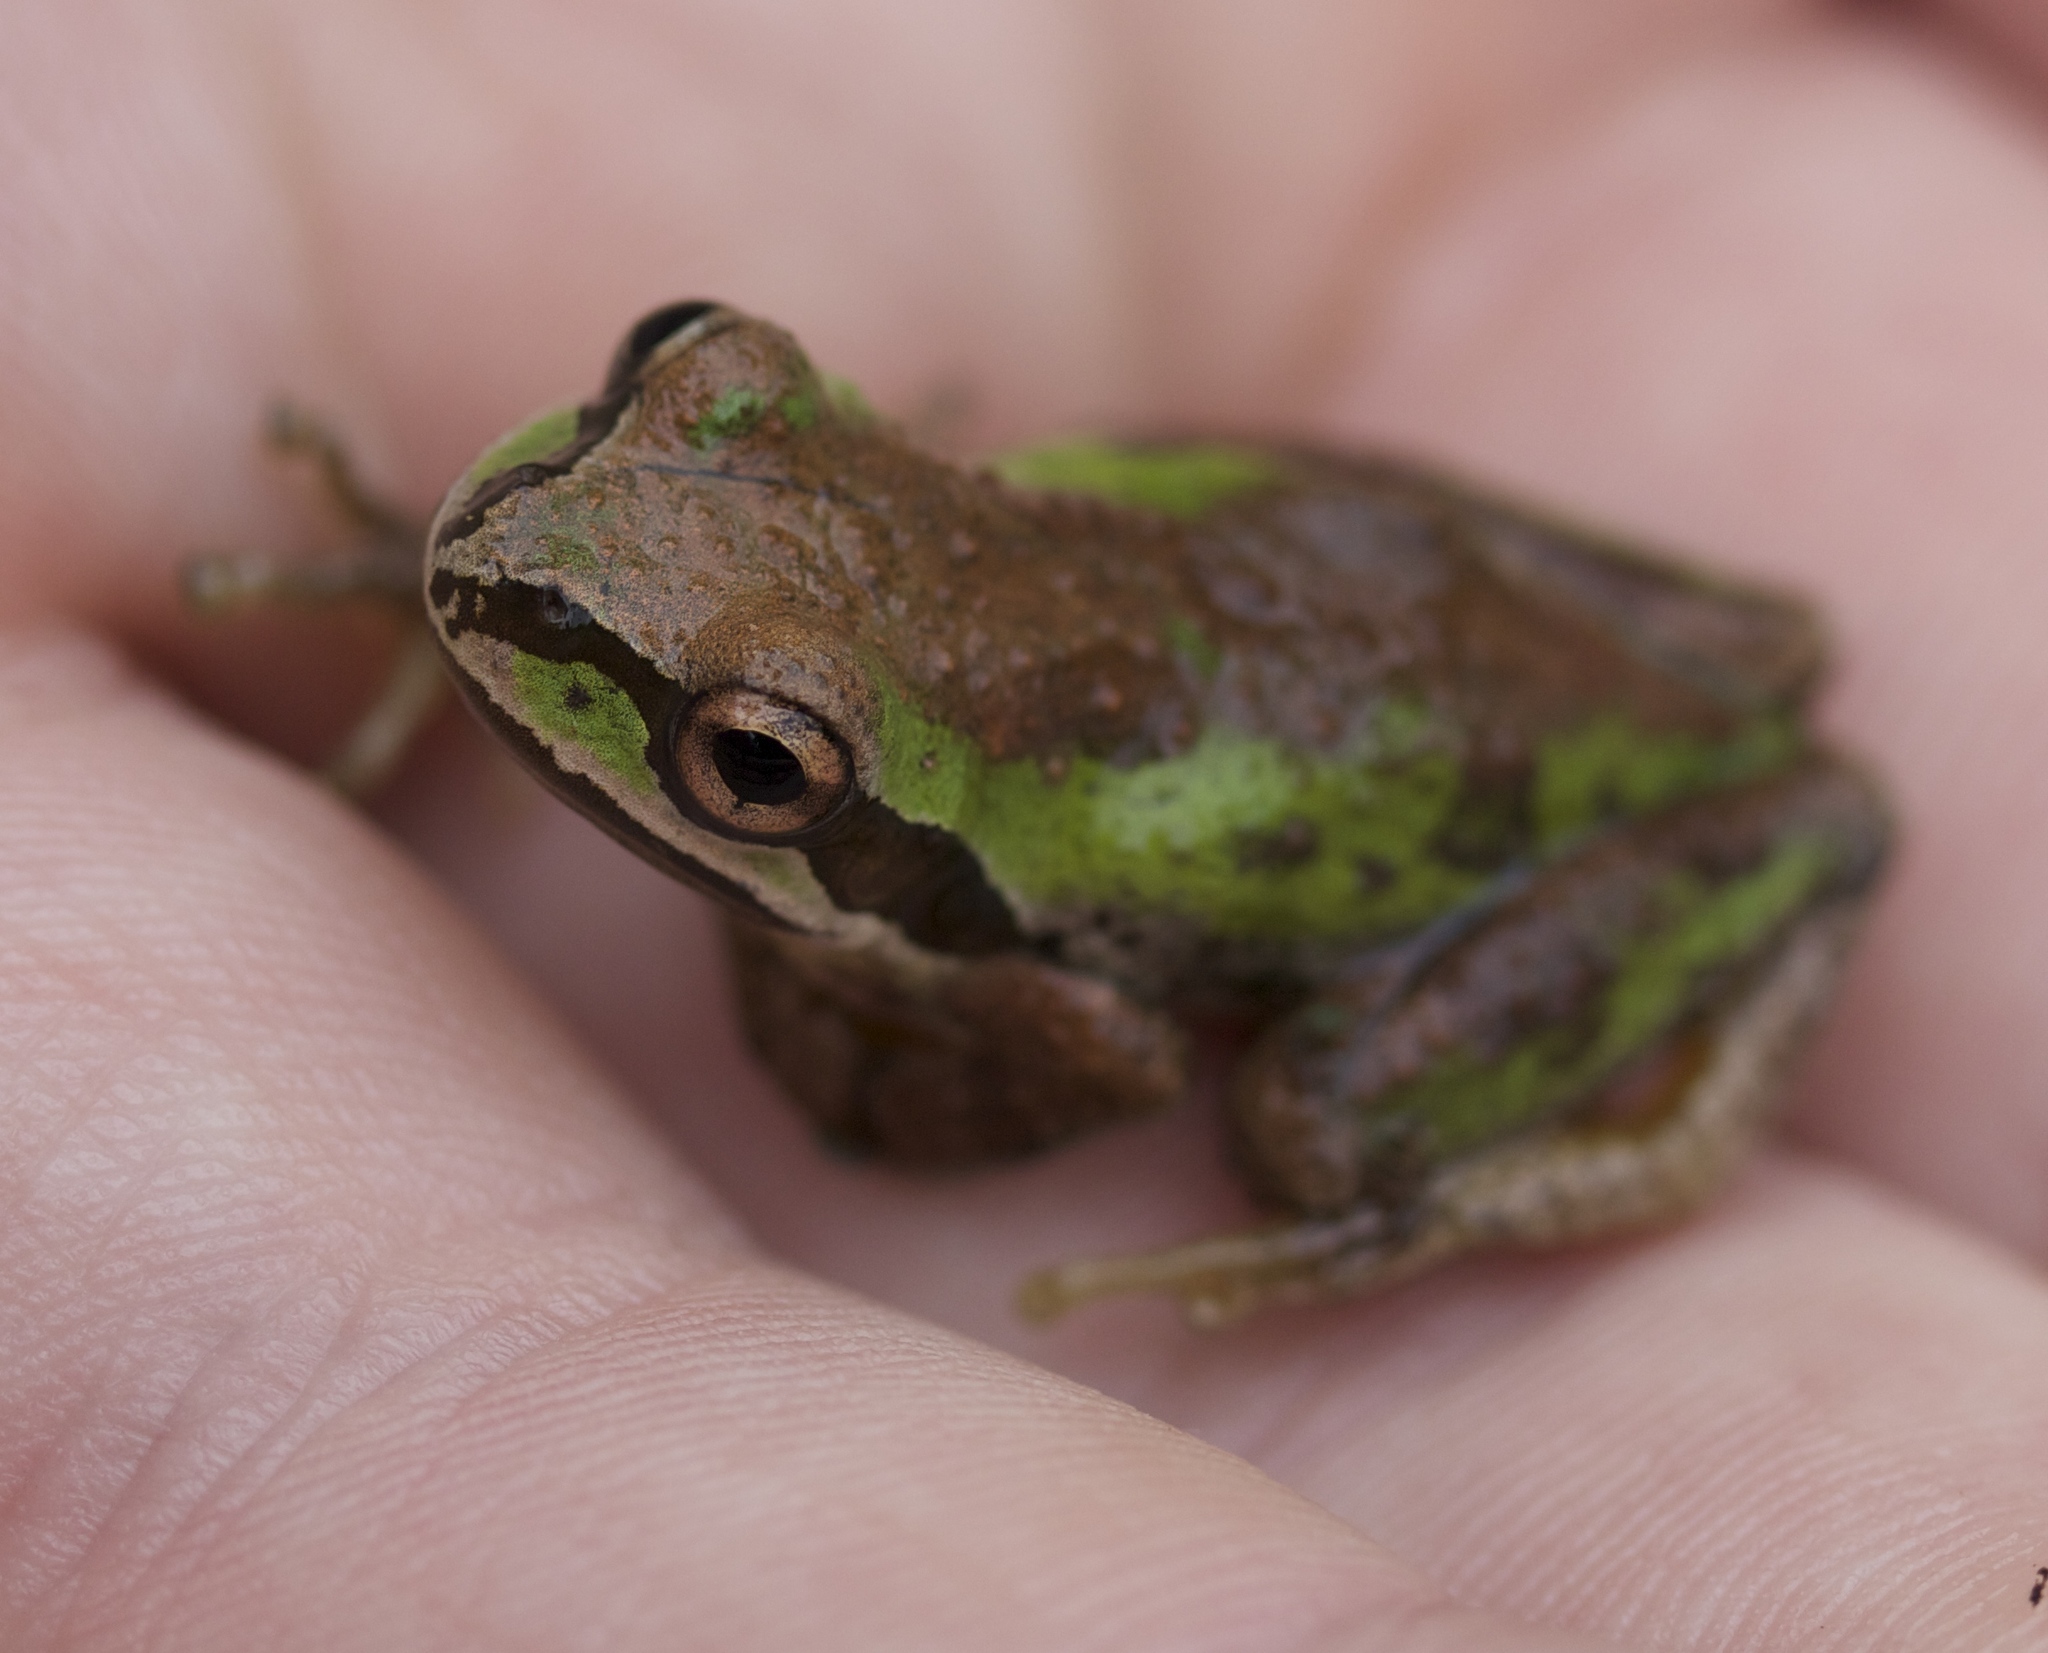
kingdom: Animalia
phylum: Chordata
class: Amphibia
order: Anura
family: Hylidae
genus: Pseudacris
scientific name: Pseudacris regilla
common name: Pacific chorus frog
